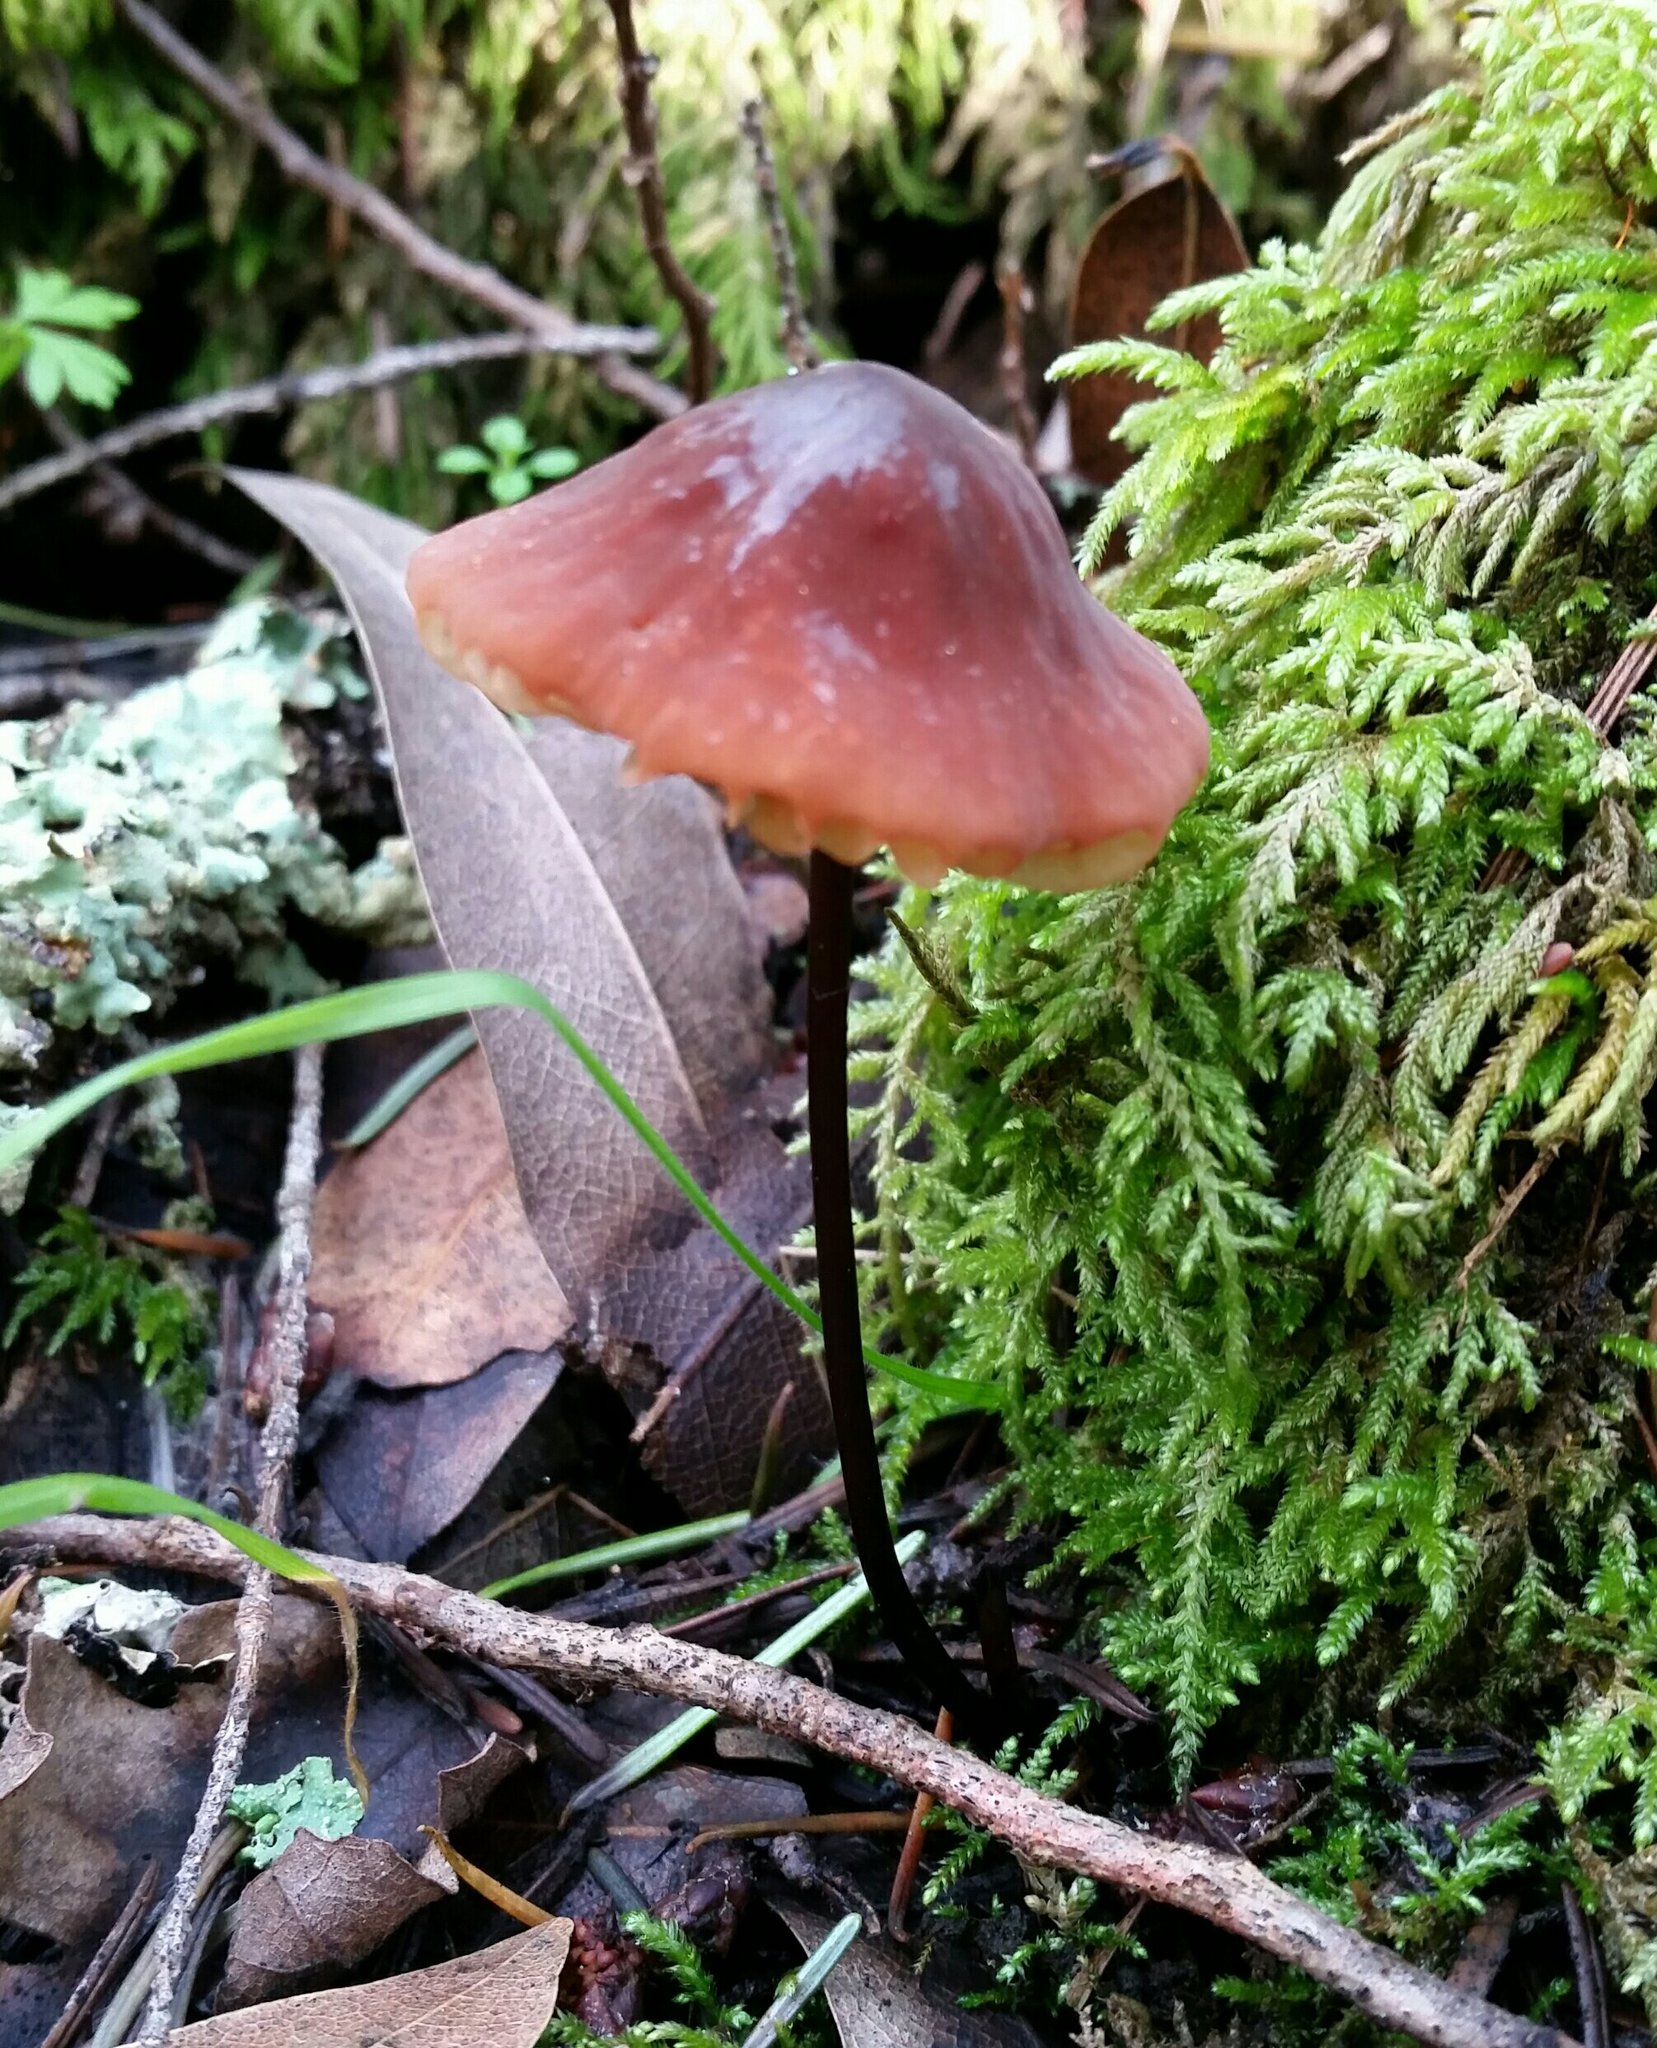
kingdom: Fungi
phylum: Basidiomycota
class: Agaricomycetes
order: Agaricales
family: Marasmiaceae
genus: Marasmius
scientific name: Marasmius plicatulus
